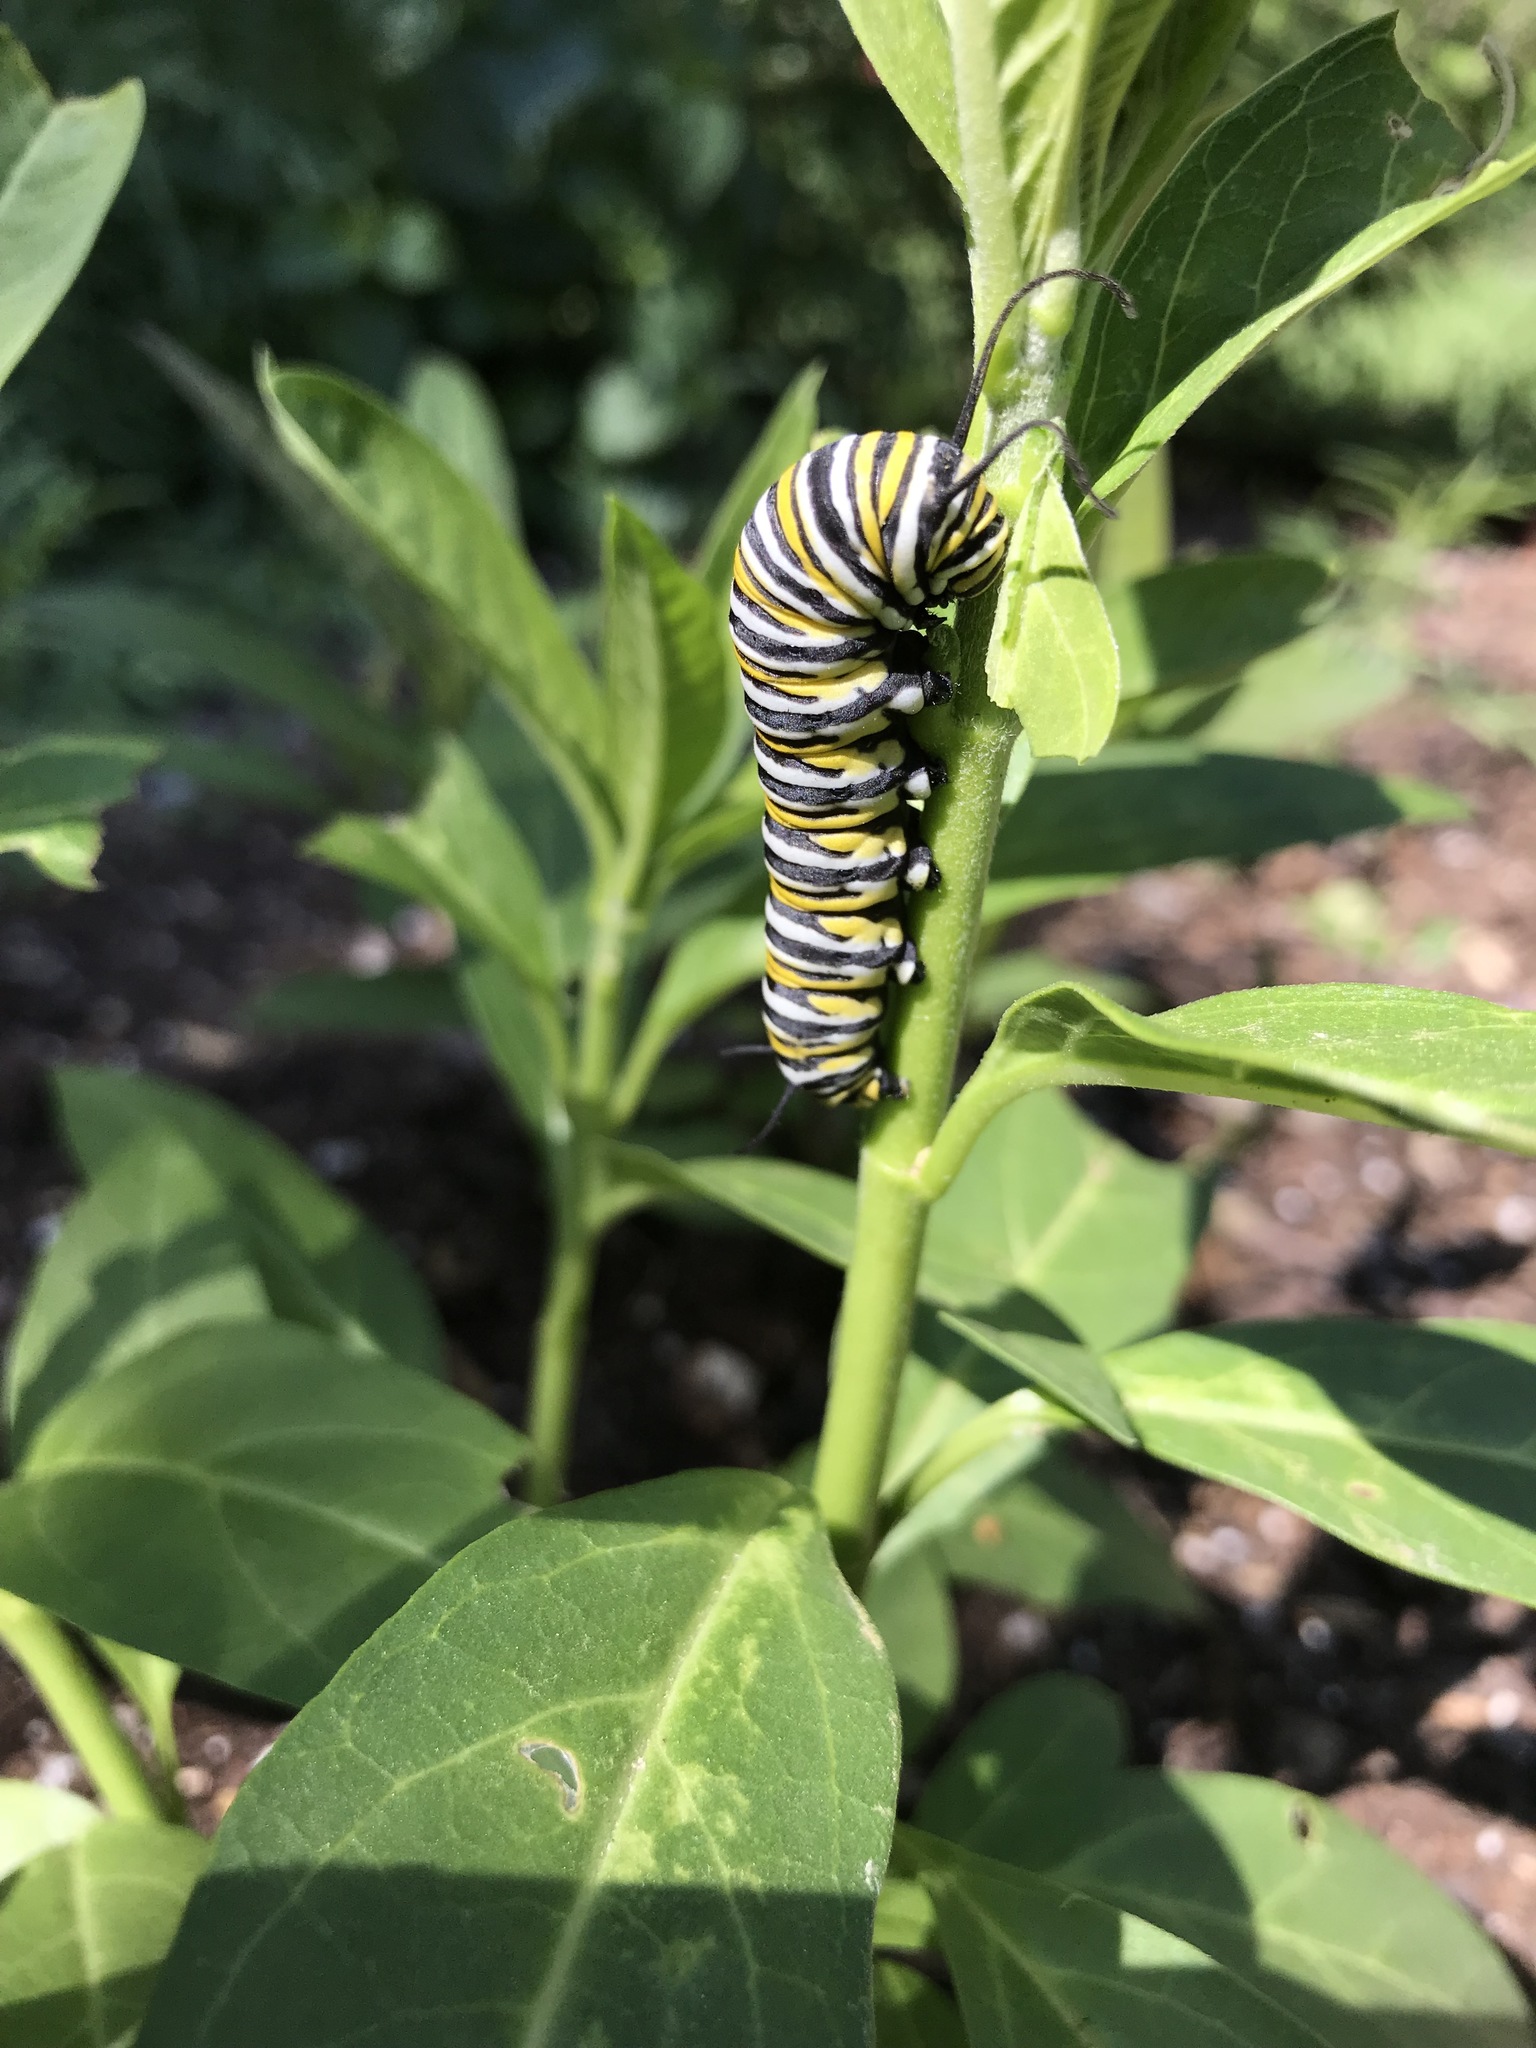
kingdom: Animalia
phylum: Arthropoda
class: Insecta
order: Lepidoptera
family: Nymphalidae
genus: Danaus
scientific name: Danaus plexippus
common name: Monarch
